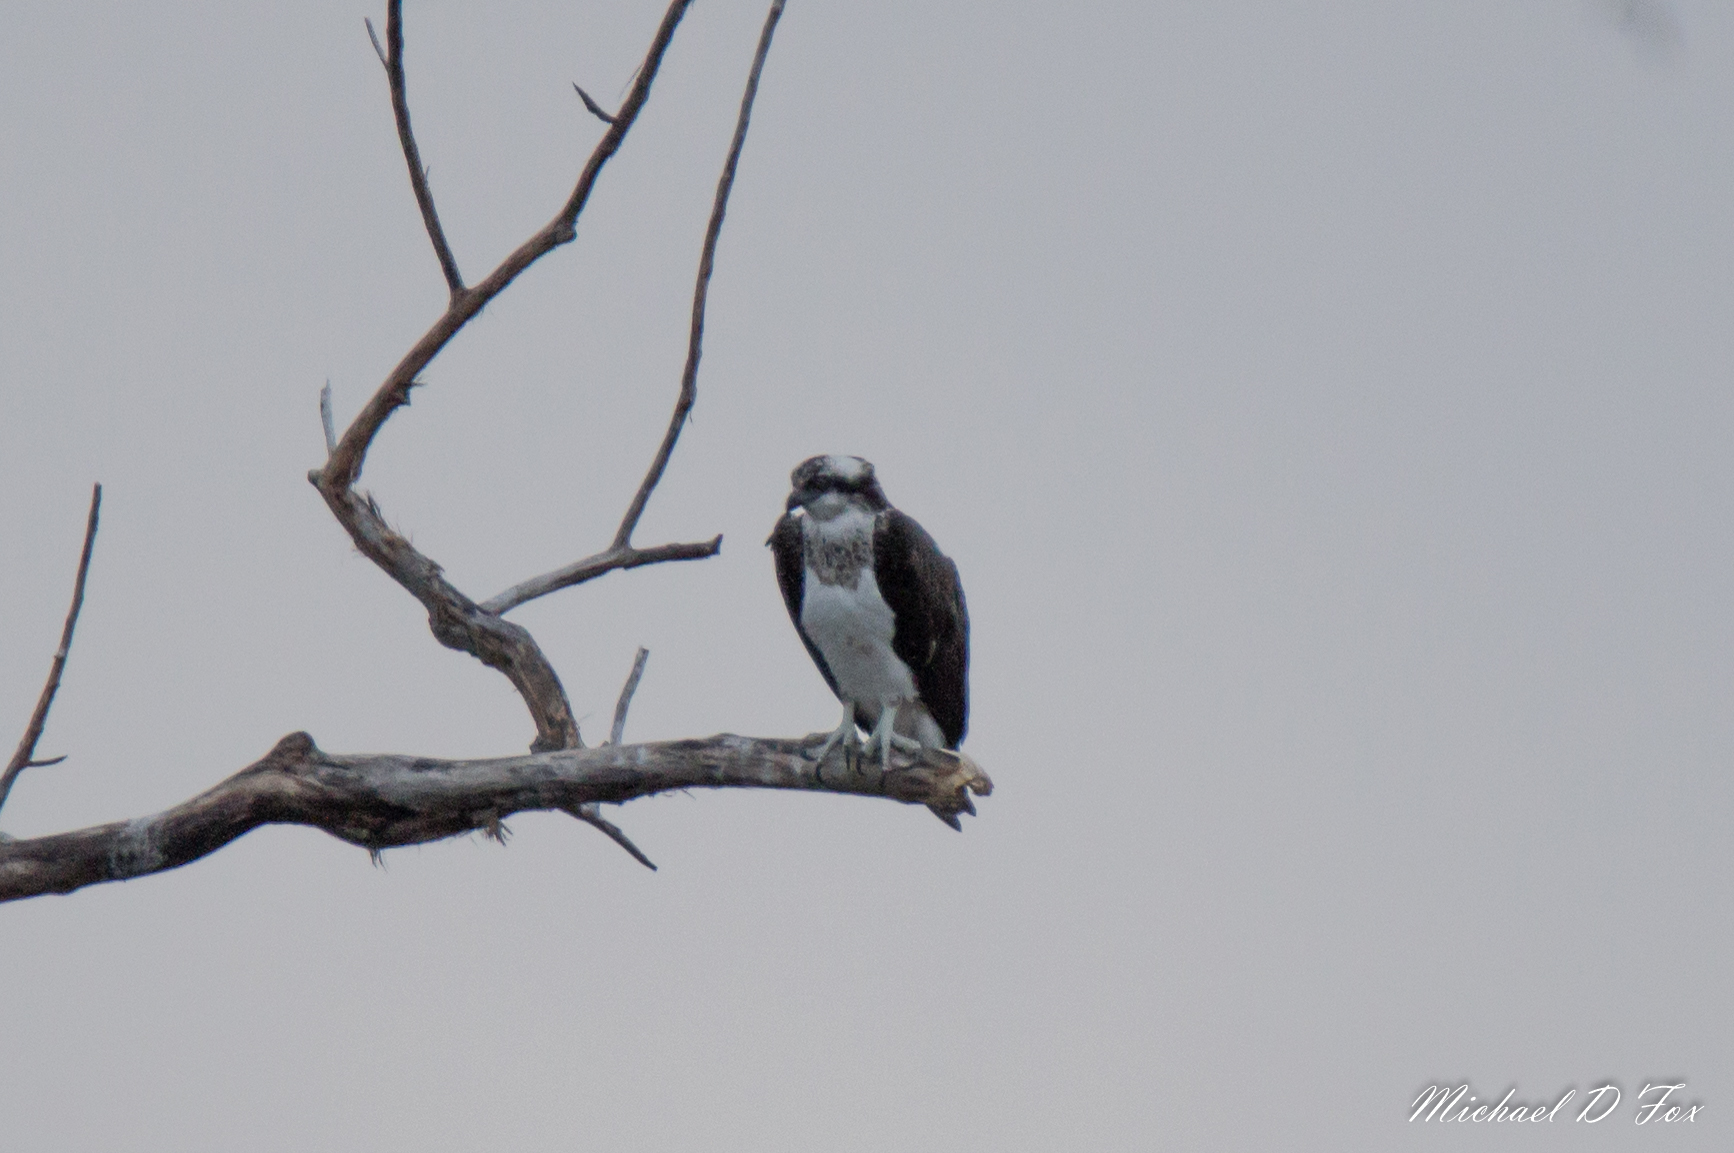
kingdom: Animalia
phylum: Chordata
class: Aves
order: Accipitriformes
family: Pandionidae
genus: Pandion
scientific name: Pandion haliaetus
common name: Osprey
